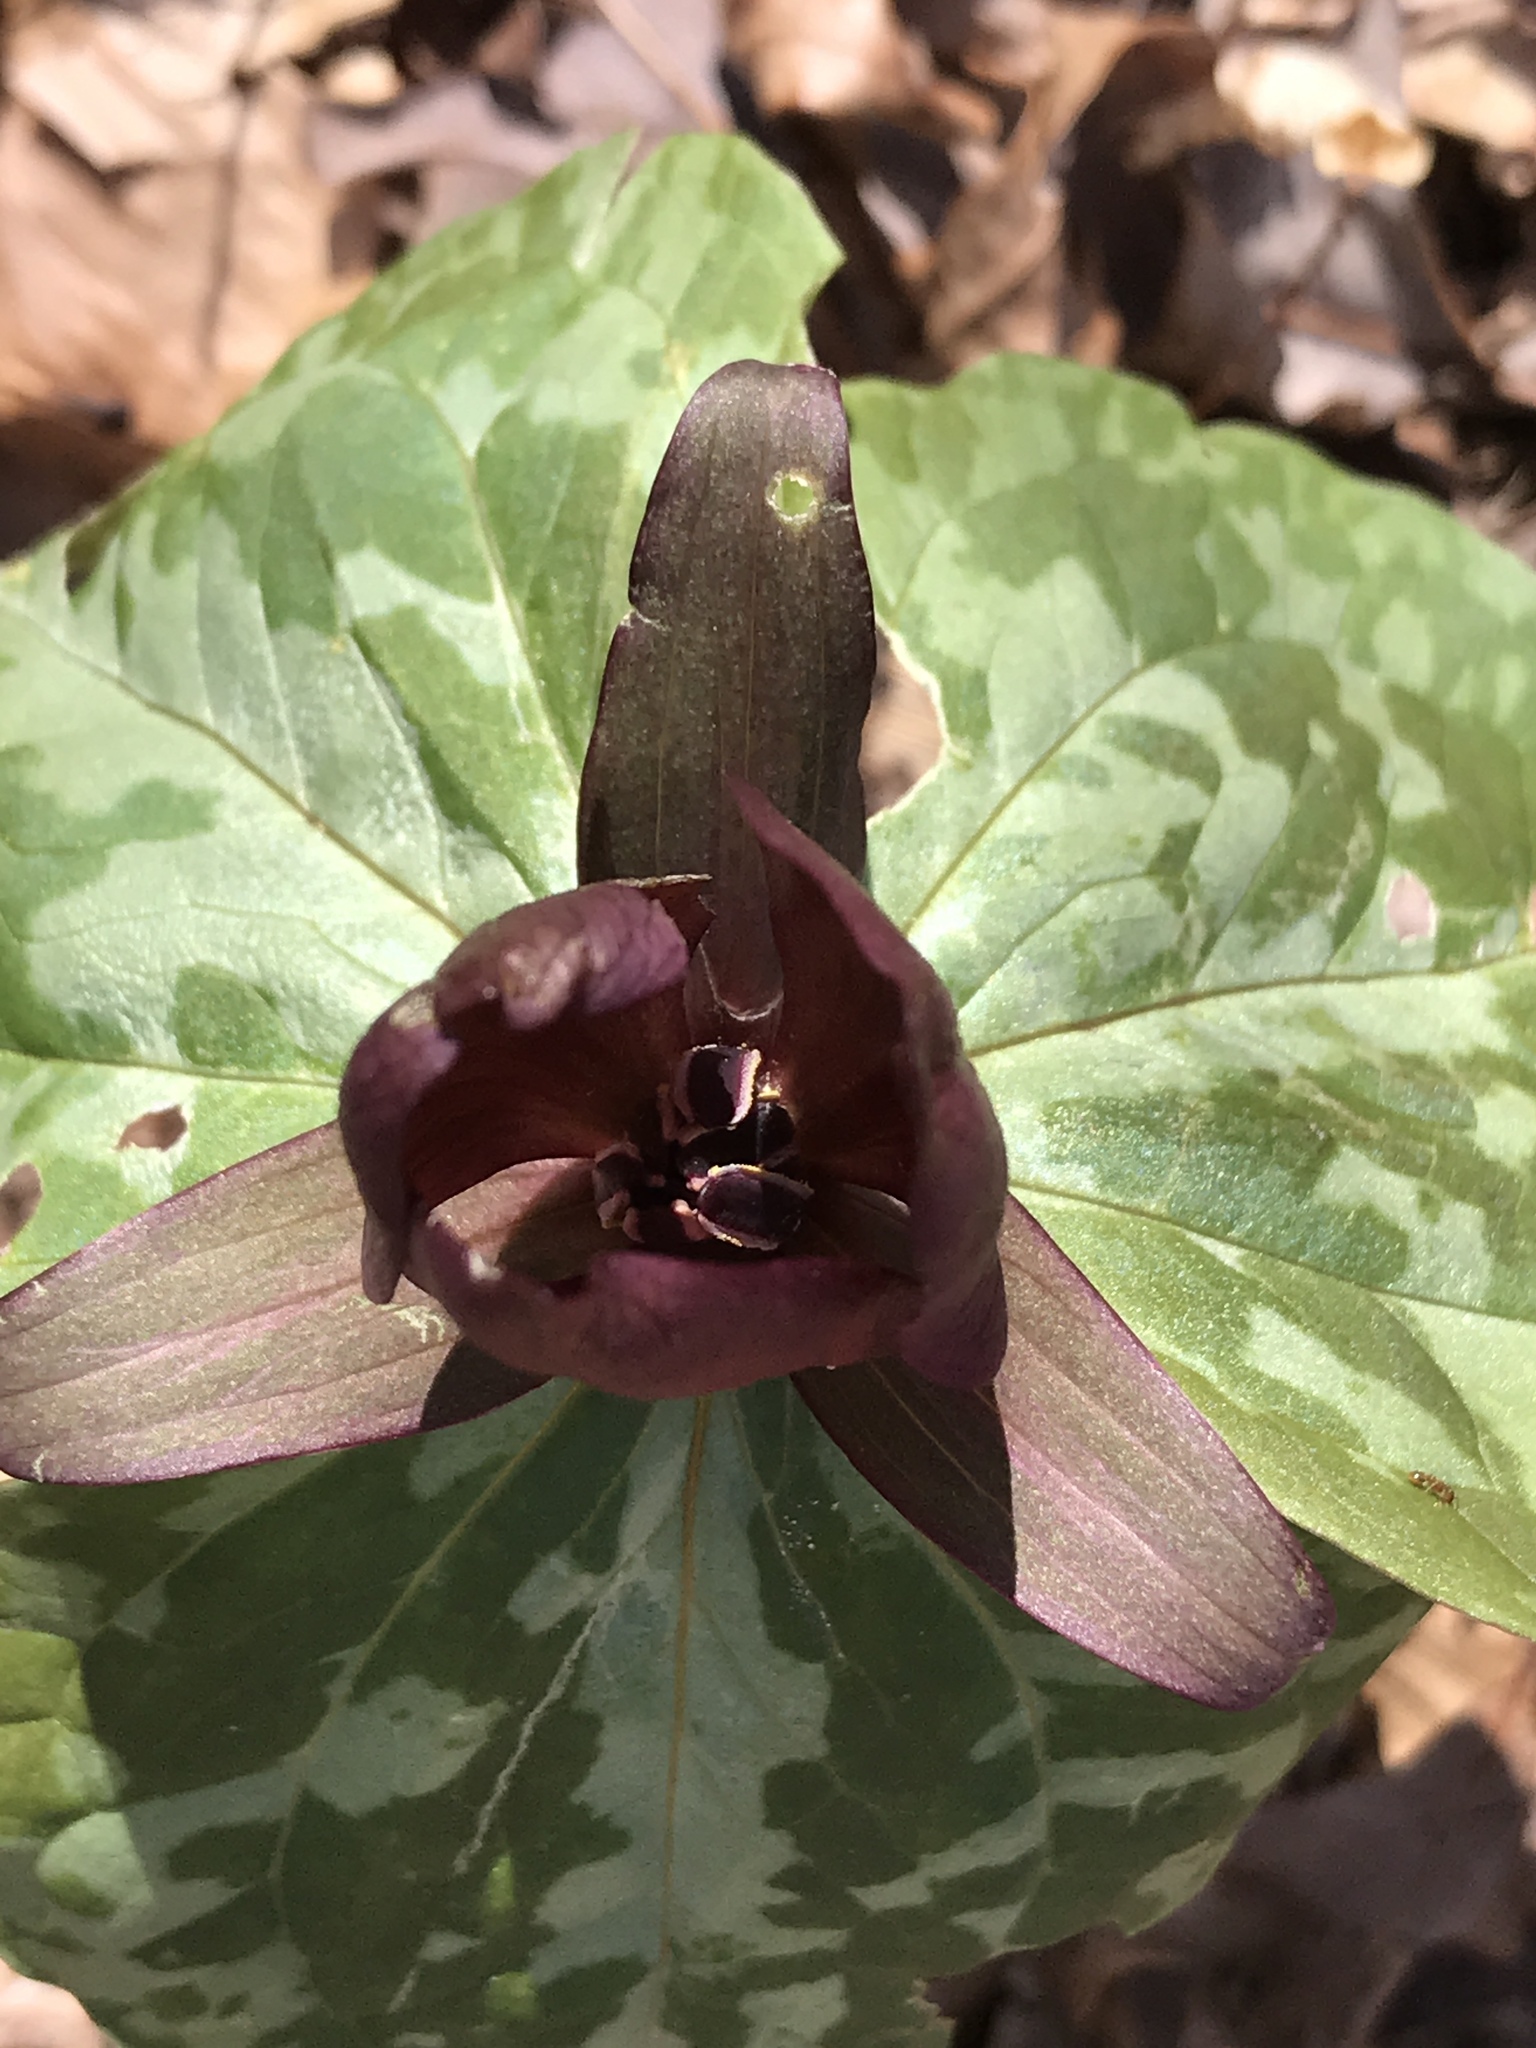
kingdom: Plantae
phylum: Tracheophyta
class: Liliopsida
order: Liliales
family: Melanthiaceae
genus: Trillium
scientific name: Trillium cuneatum
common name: Cuneate trillium
